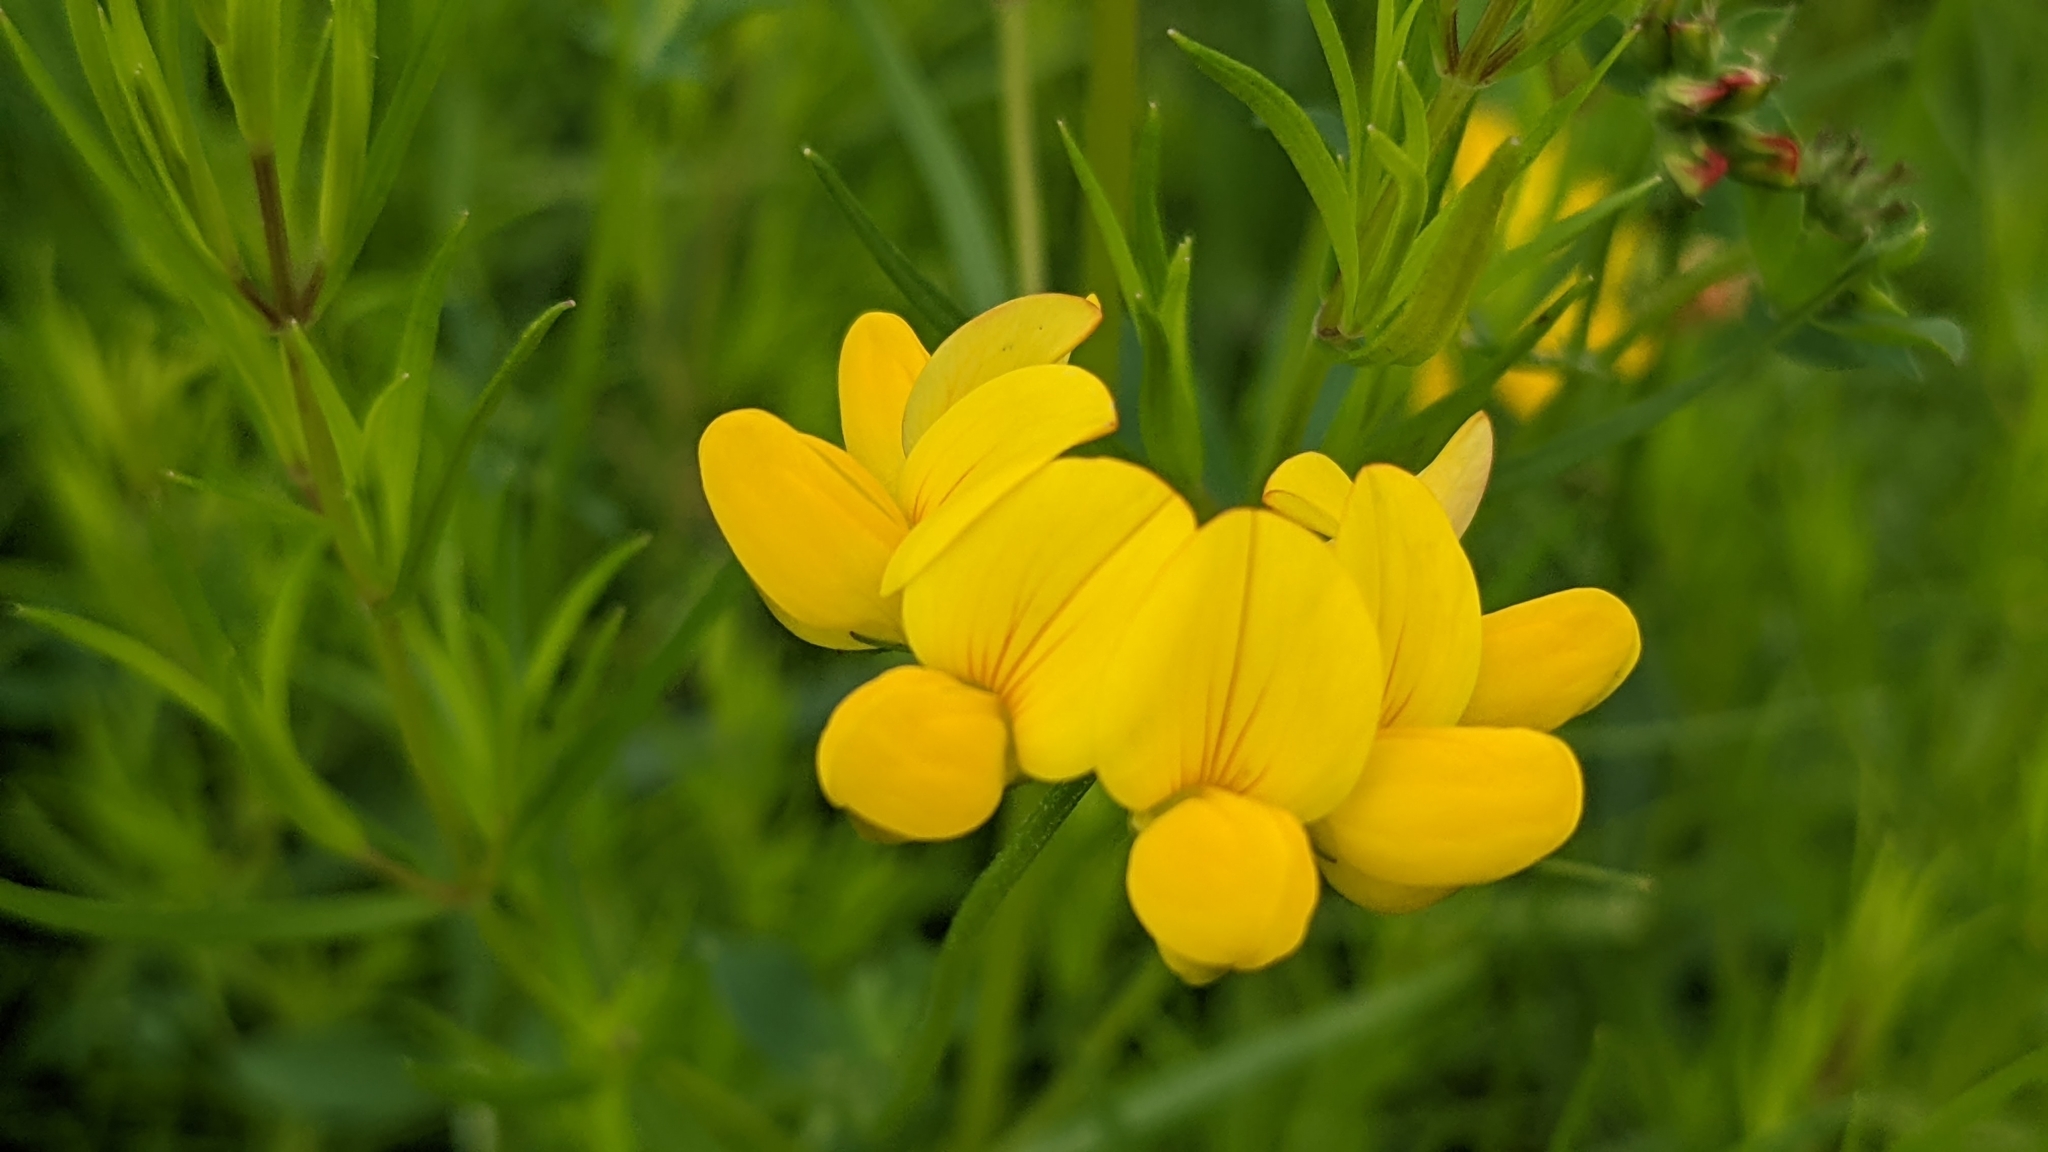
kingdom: Plantae
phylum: Tracheophyta
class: Magnoliopsida
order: Fabales
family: Fabaceae
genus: Lotus
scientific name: Lotus corniculatus
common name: Common bird's-foot-trefoil
